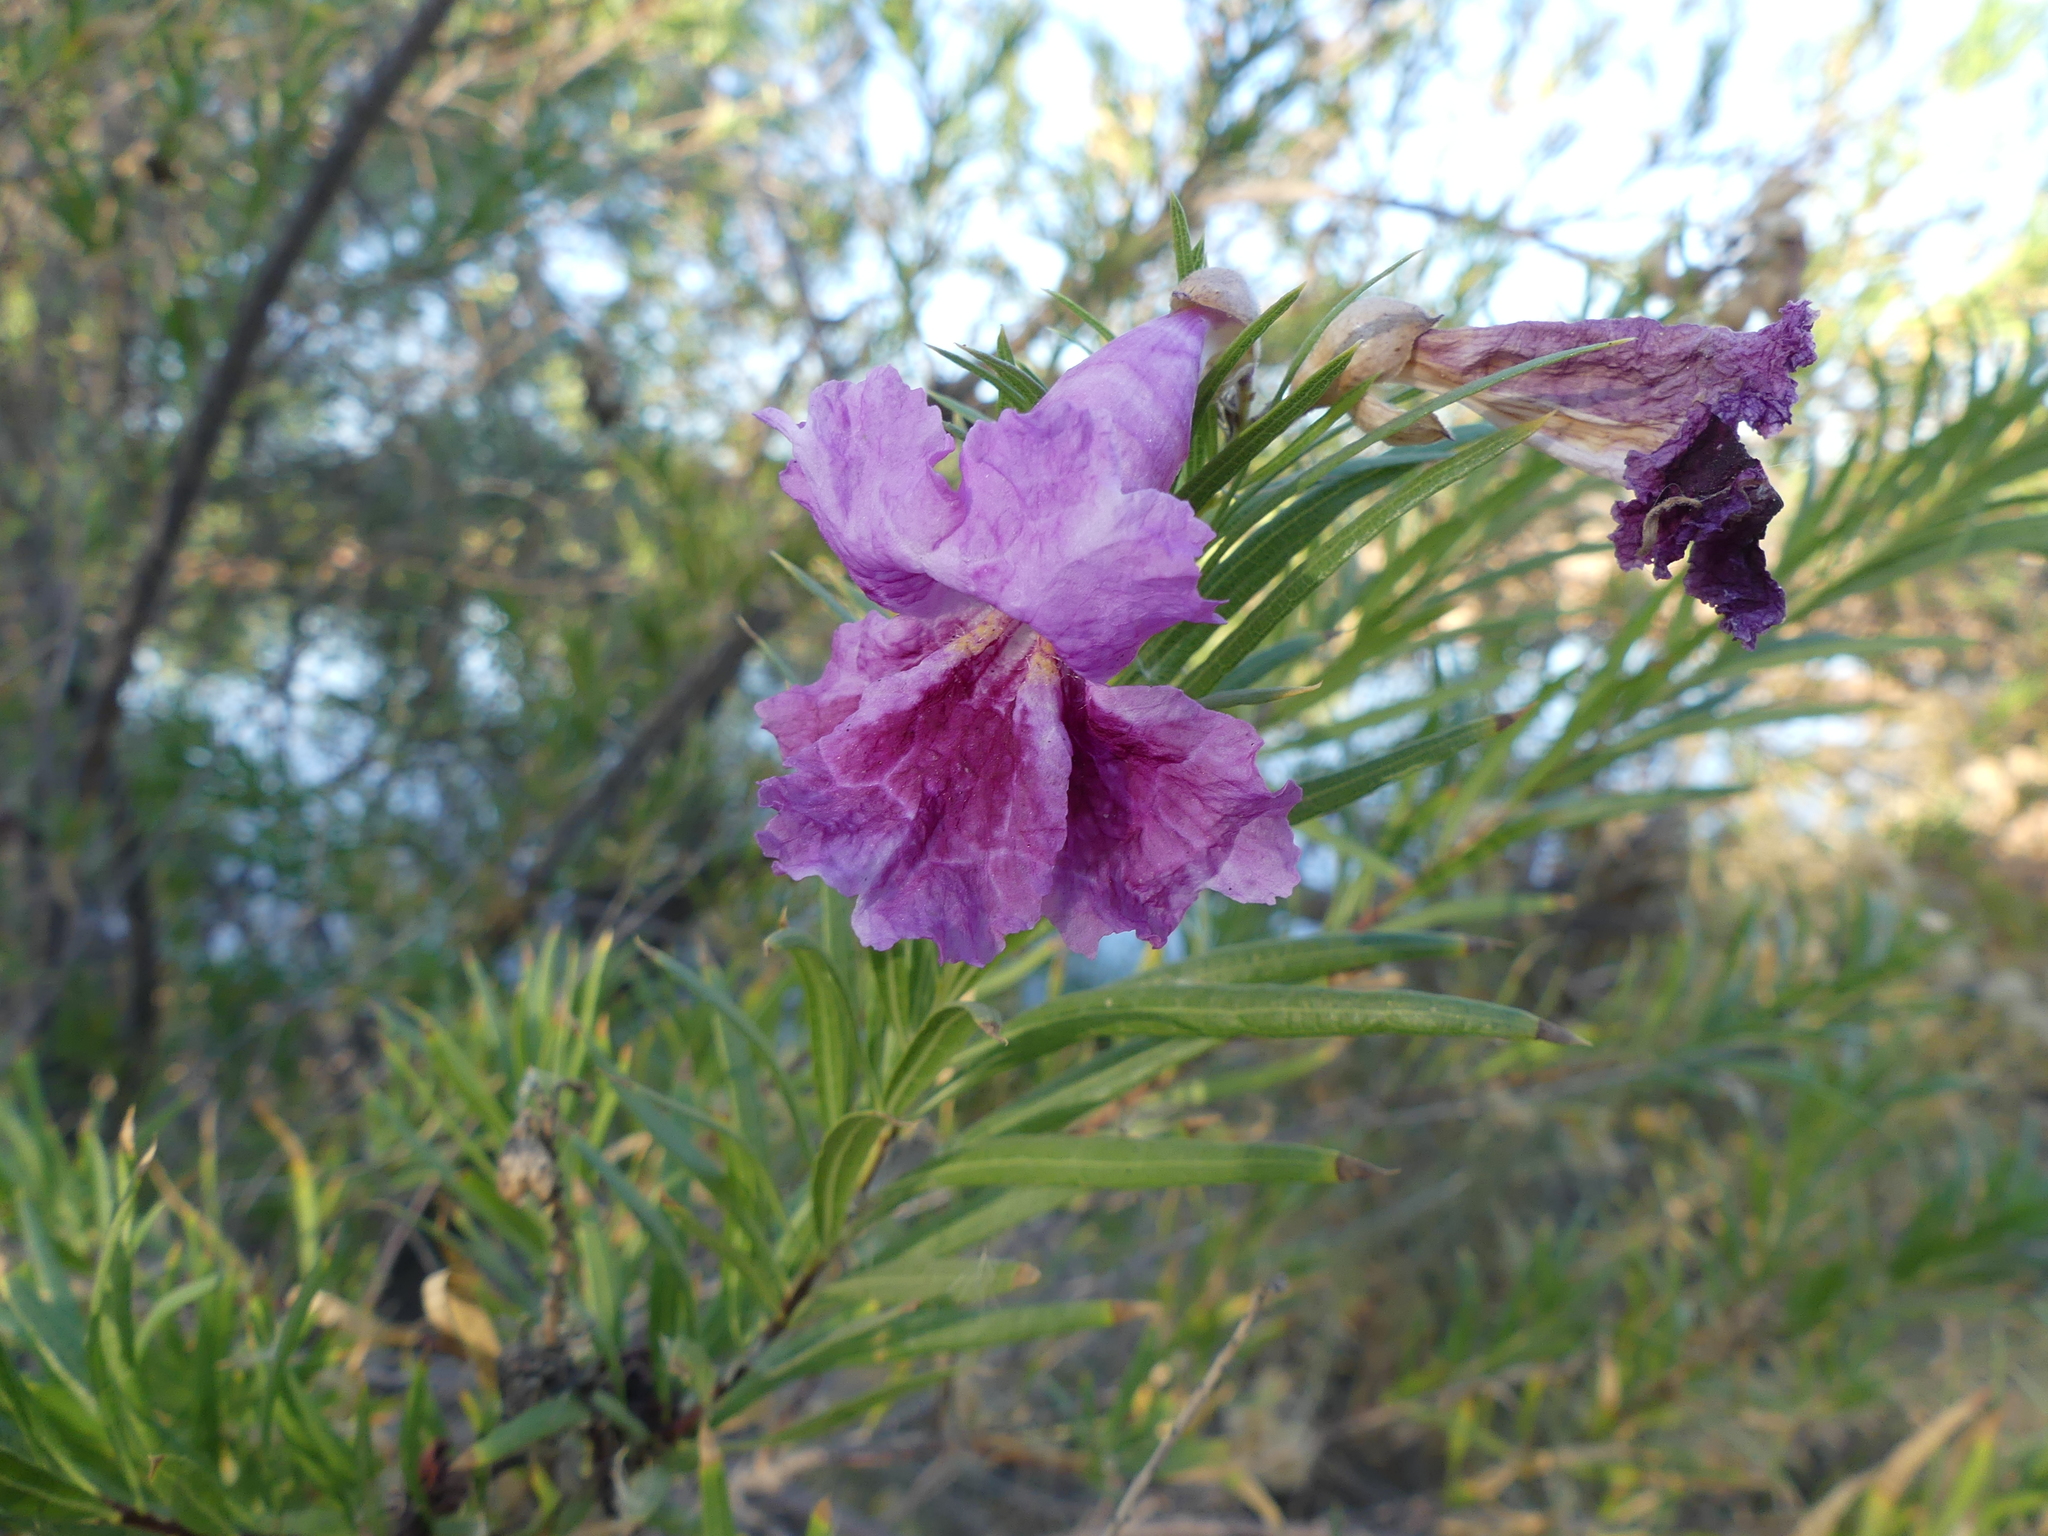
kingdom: Plantae
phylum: Tracheophyta
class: Magnoliopsida
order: Lamiales
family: Bignoniaceae
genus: Chilopsis
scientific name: Chilopsis linearis
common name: Desert-willow
